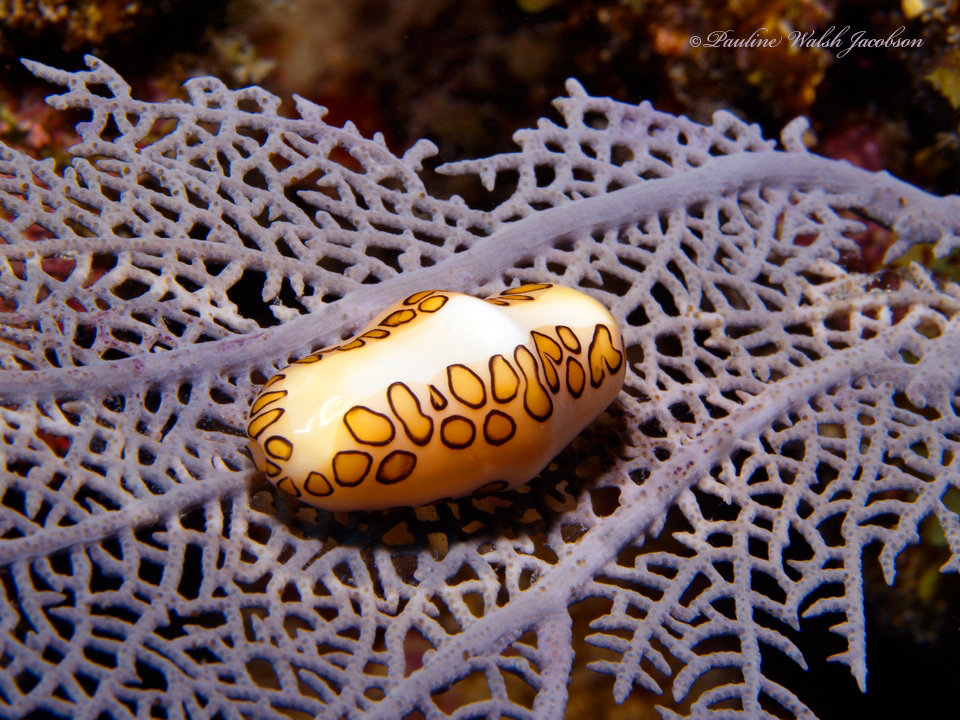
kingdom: Animalia
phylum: Mollusca
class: Gastropoda
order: Littorinimorpha
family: Ovulidae
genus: Cyphoma
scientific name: Cyphoma gibbosum
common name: Flamingo tongue
